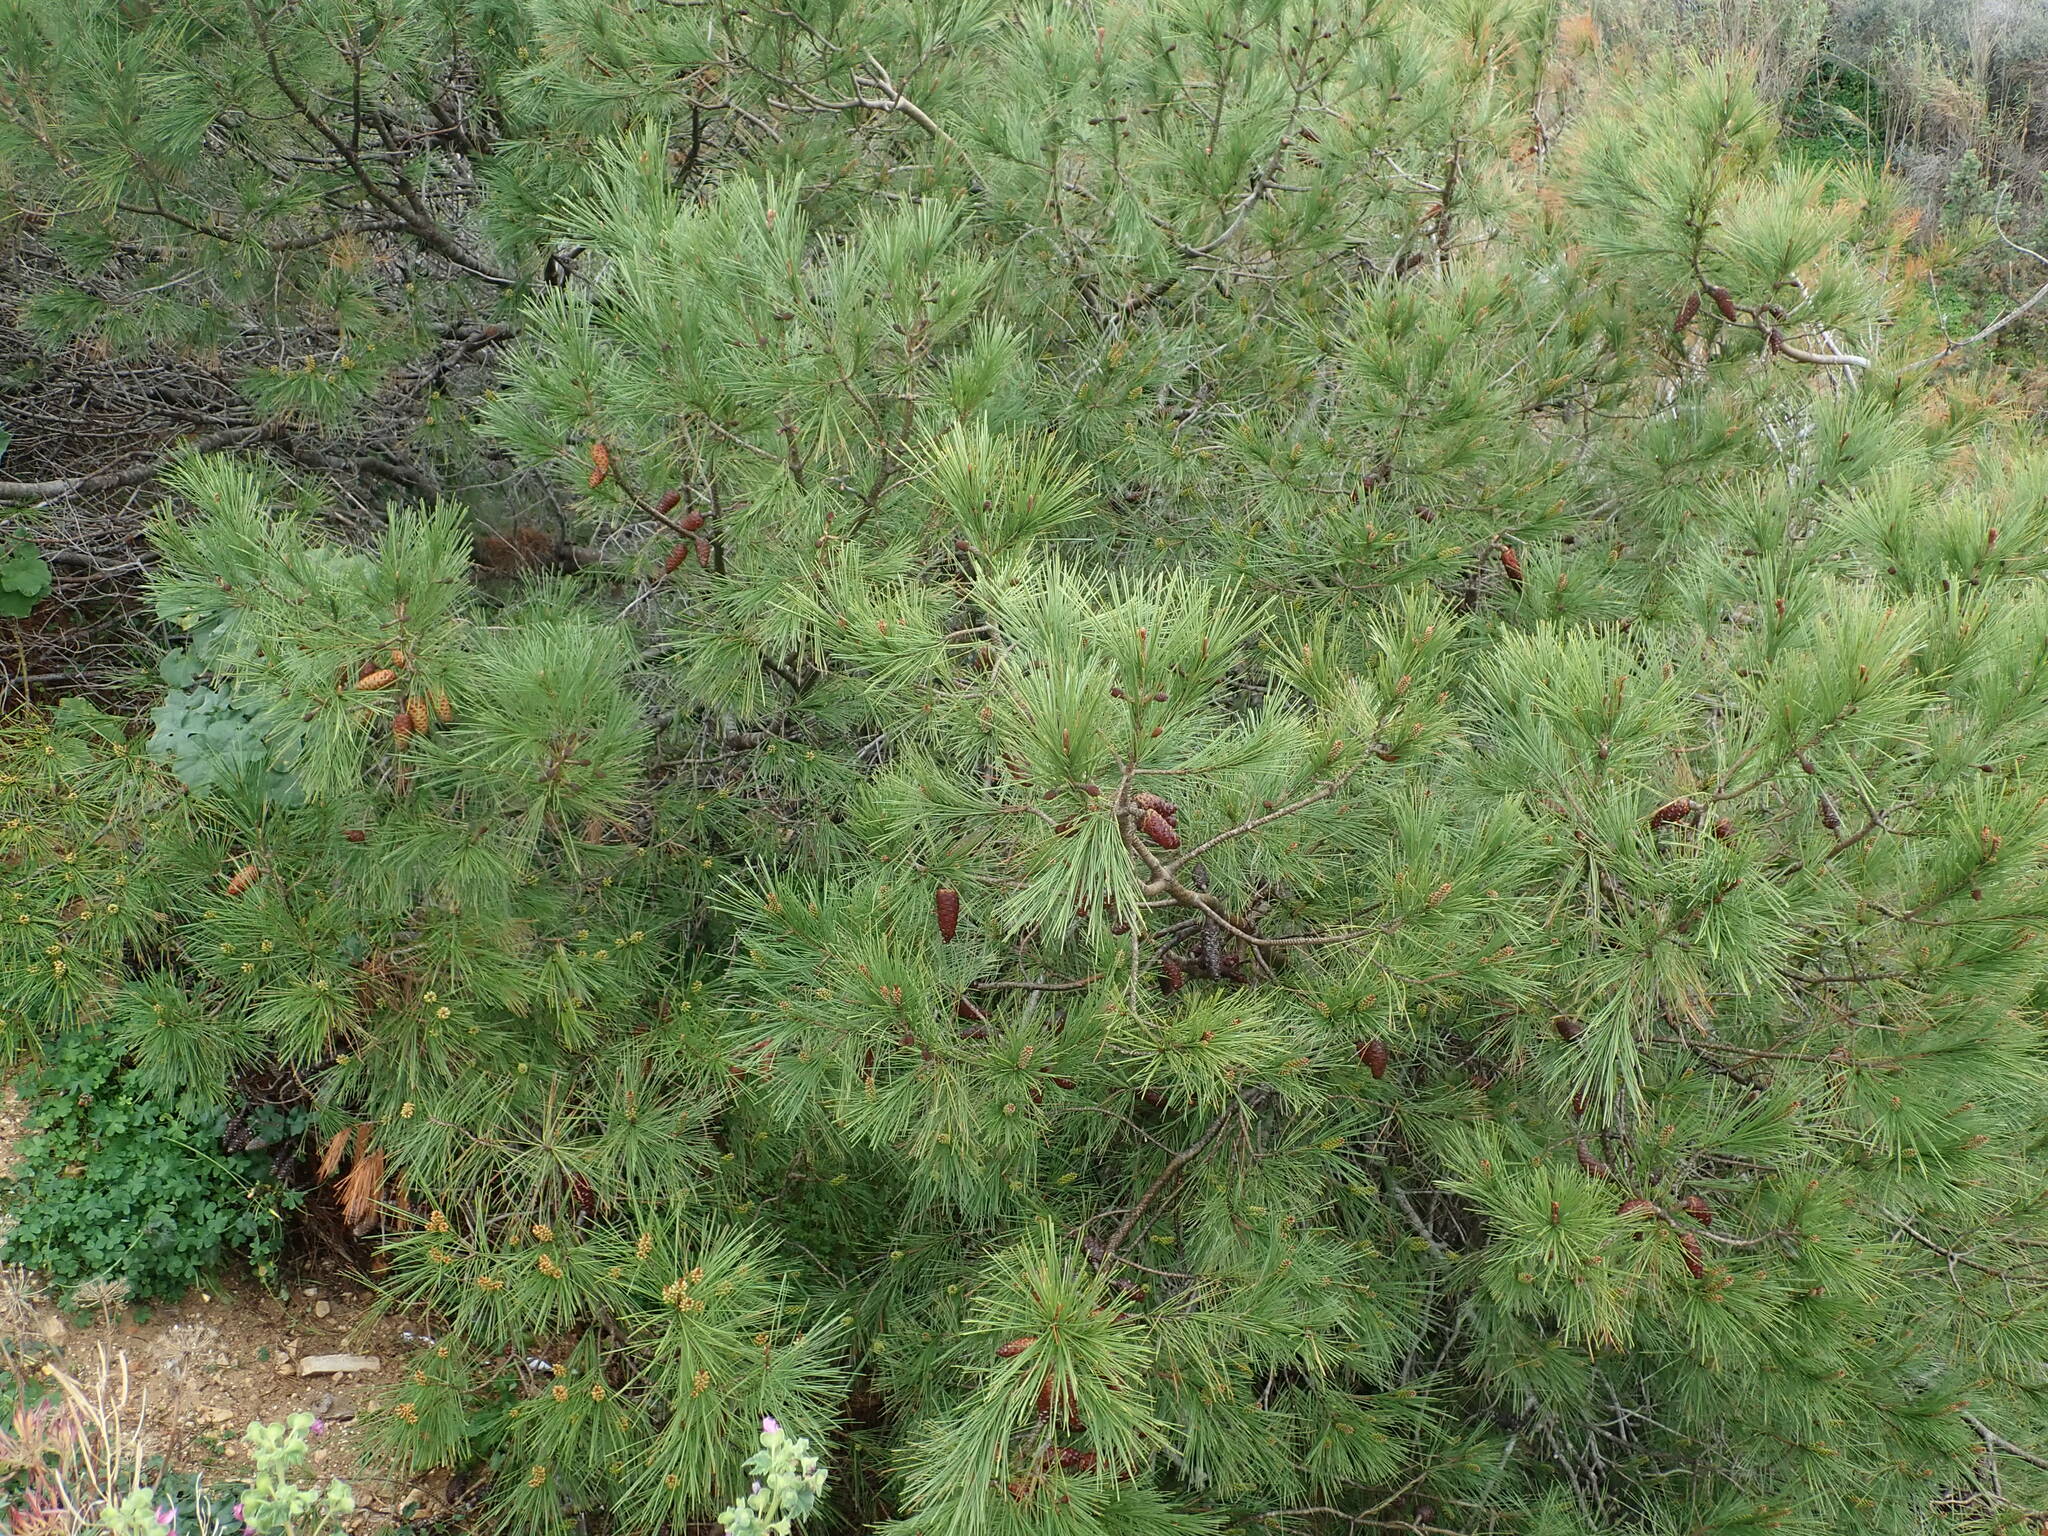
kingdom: Plantae
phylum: Tracheophyta
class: Pinopsida
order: Pinales
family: Pinaceae
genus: Pinus
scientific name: Pinus halepensis
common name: Aleppo pine
